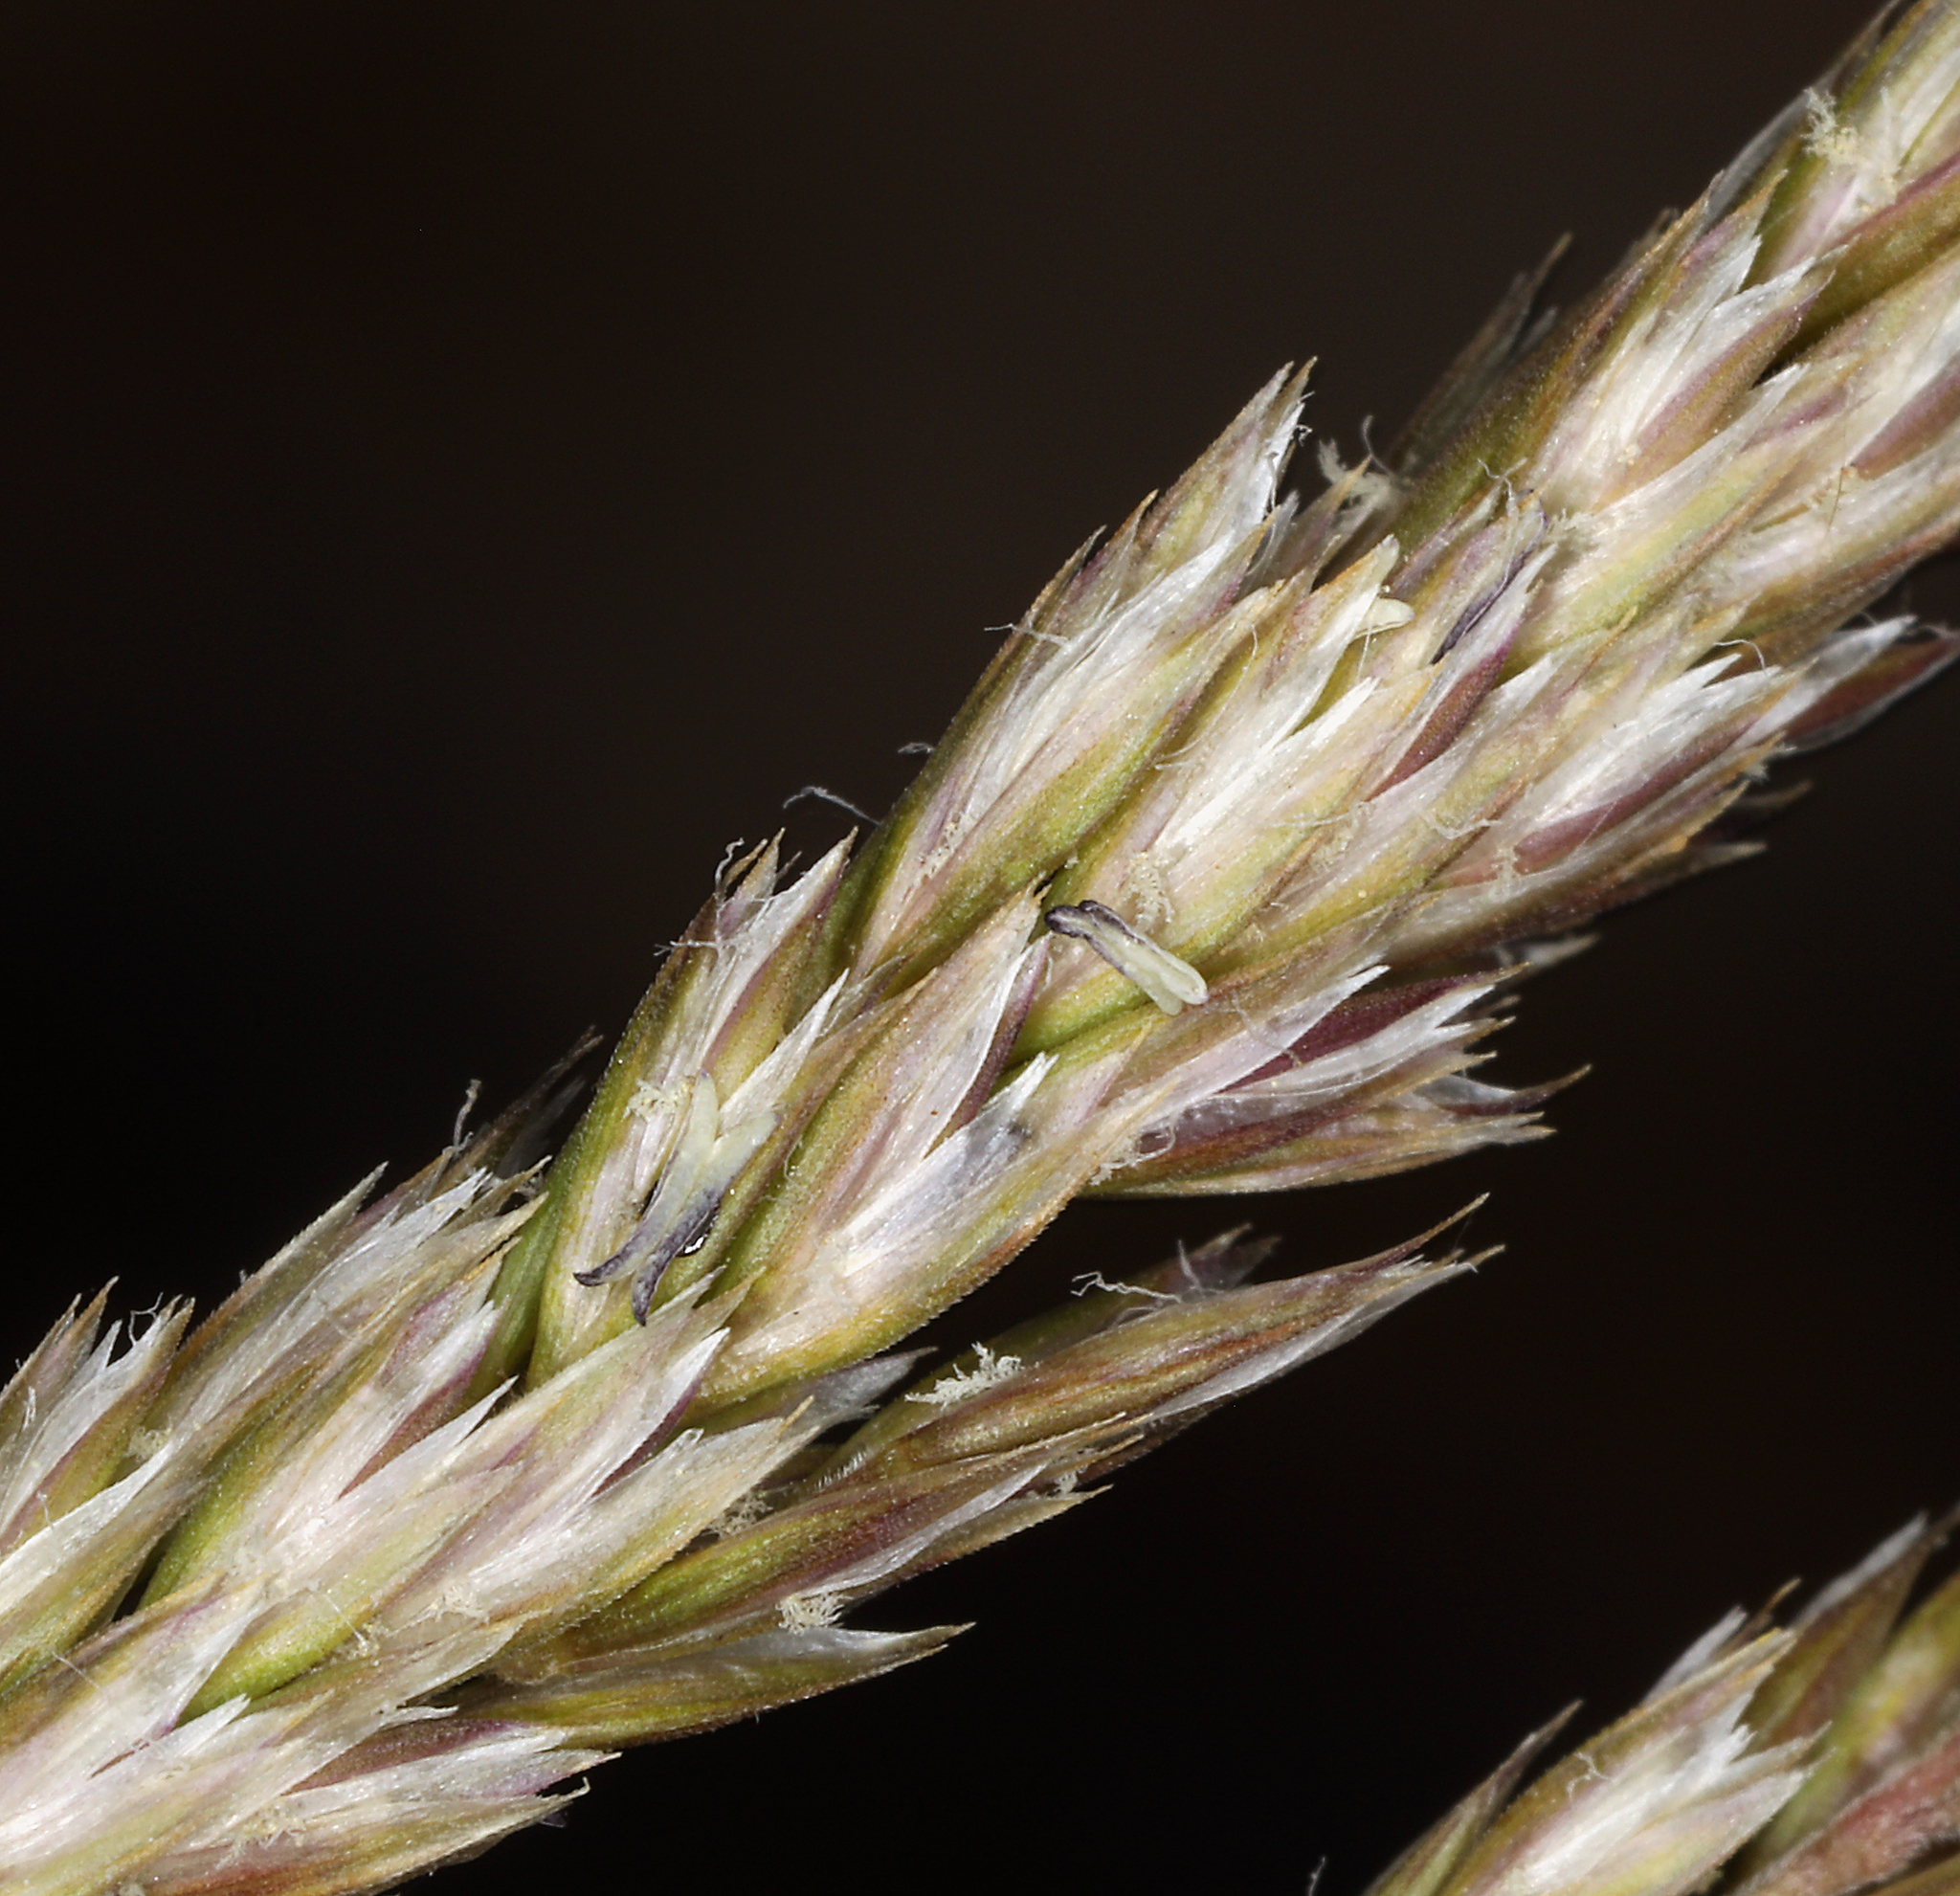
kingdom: Plantae
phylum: Tracheophyta
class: Liliopsida
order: Poales
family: Poaceae
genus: Koeleria
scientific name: Koeleria macrantha
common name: Crested hair-grass
